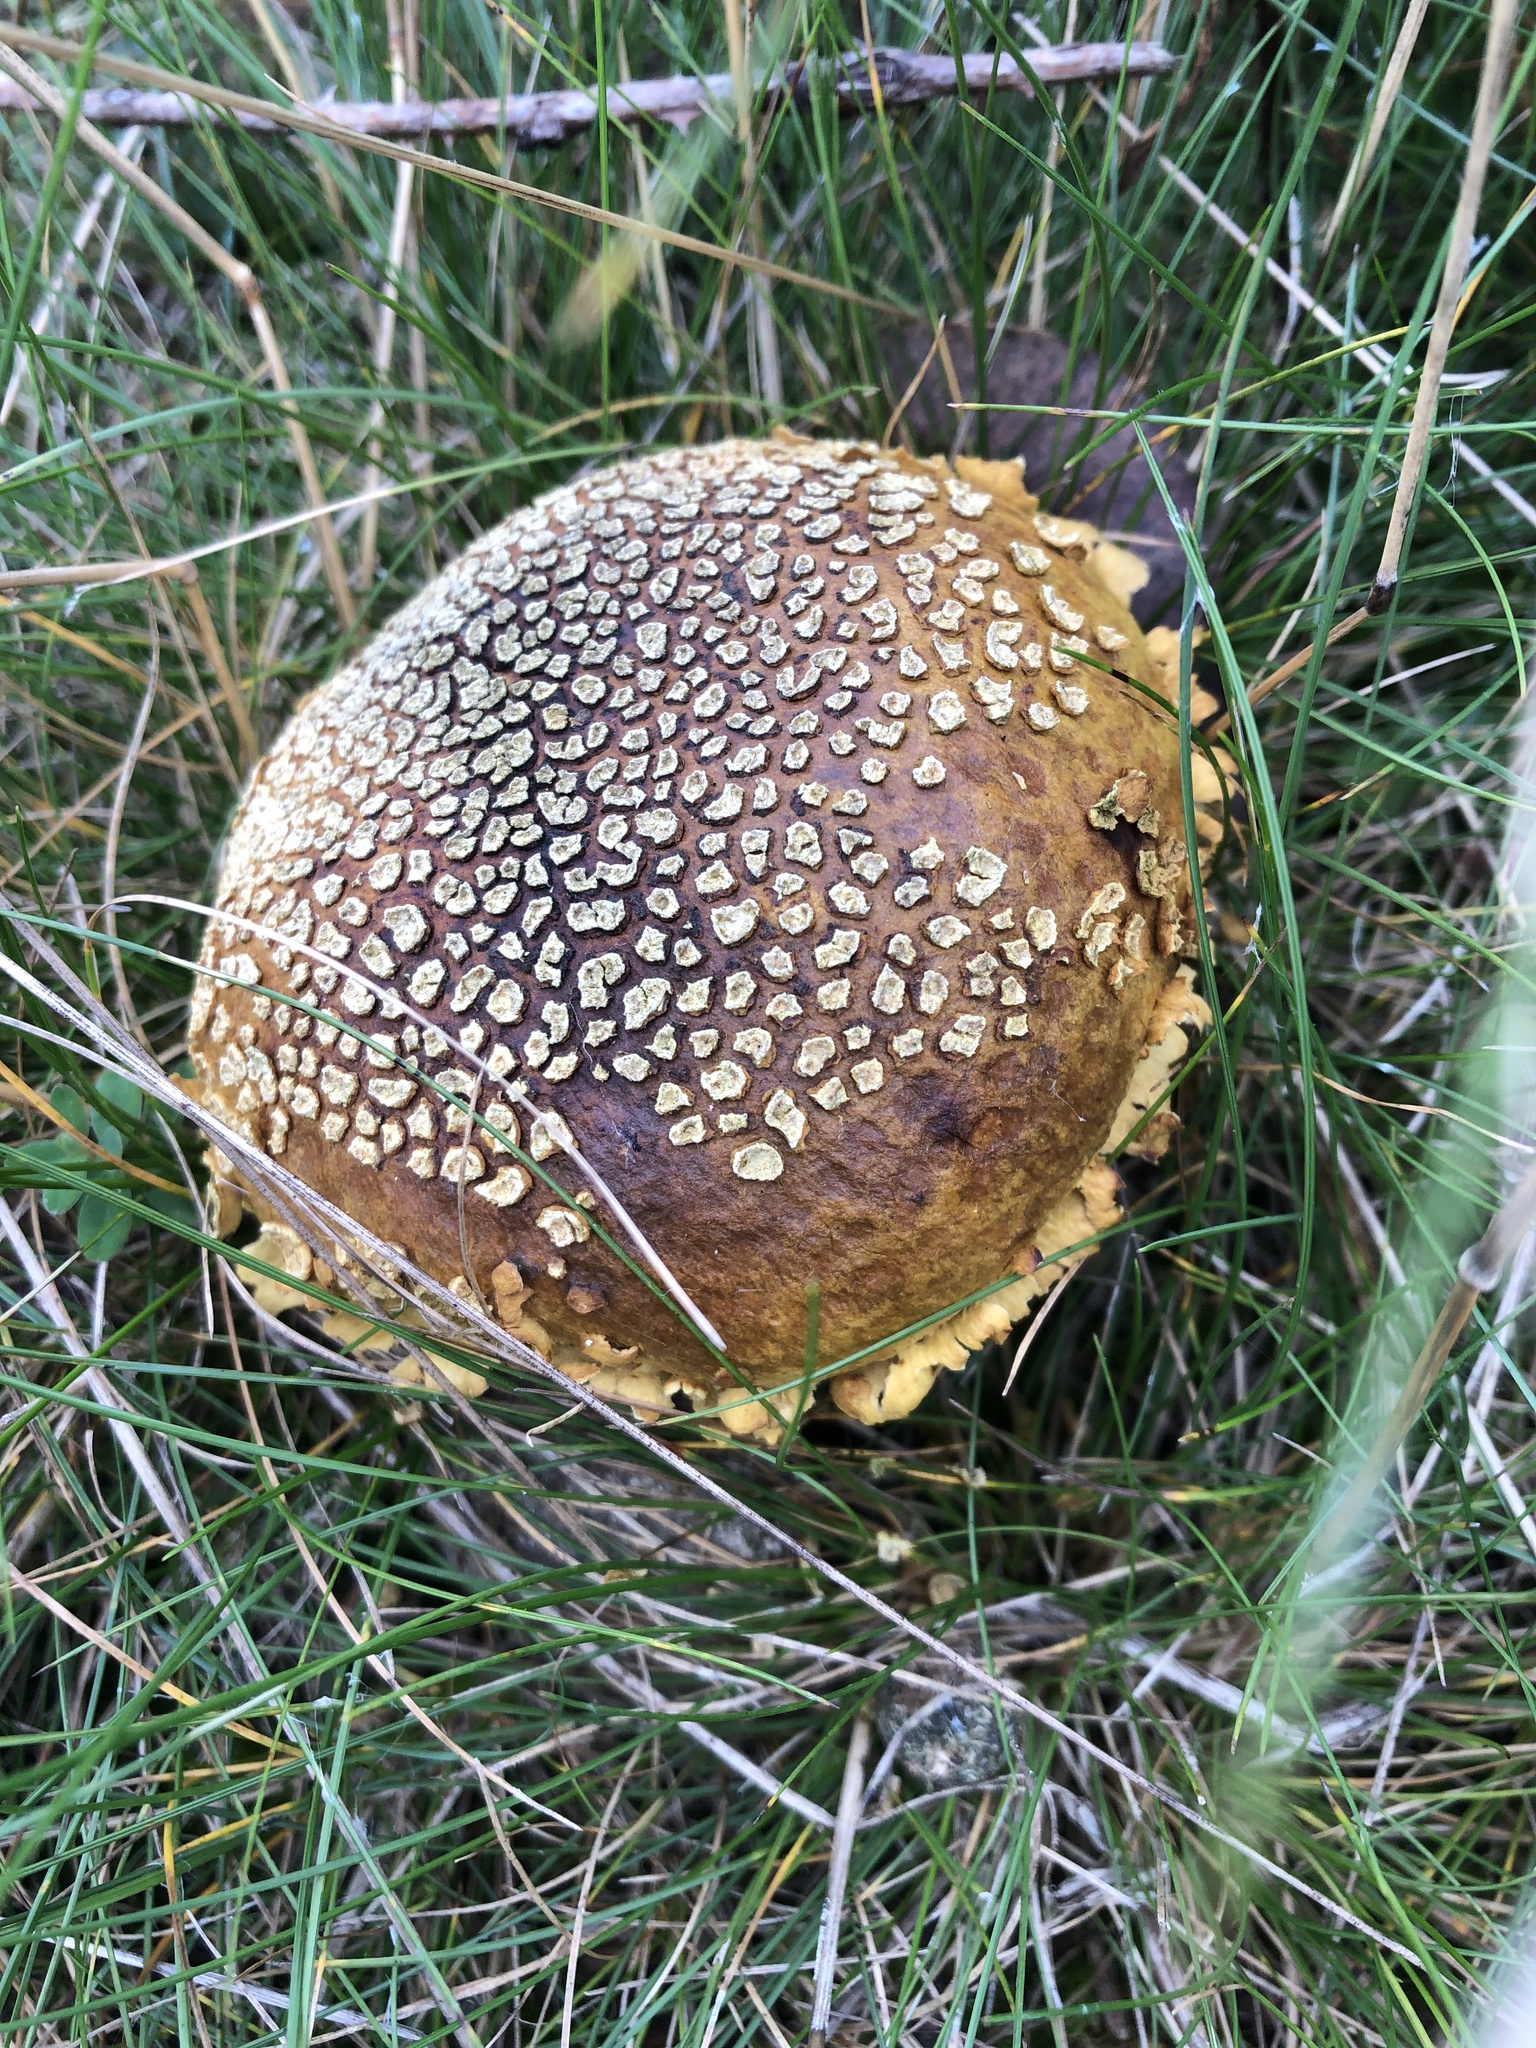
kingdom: Fungi
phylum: Basidiomycota
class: Agaricomycetes
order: Agaricales
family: Lycoperdaceae
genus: Bovistella
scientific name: Bovistella utriformis
